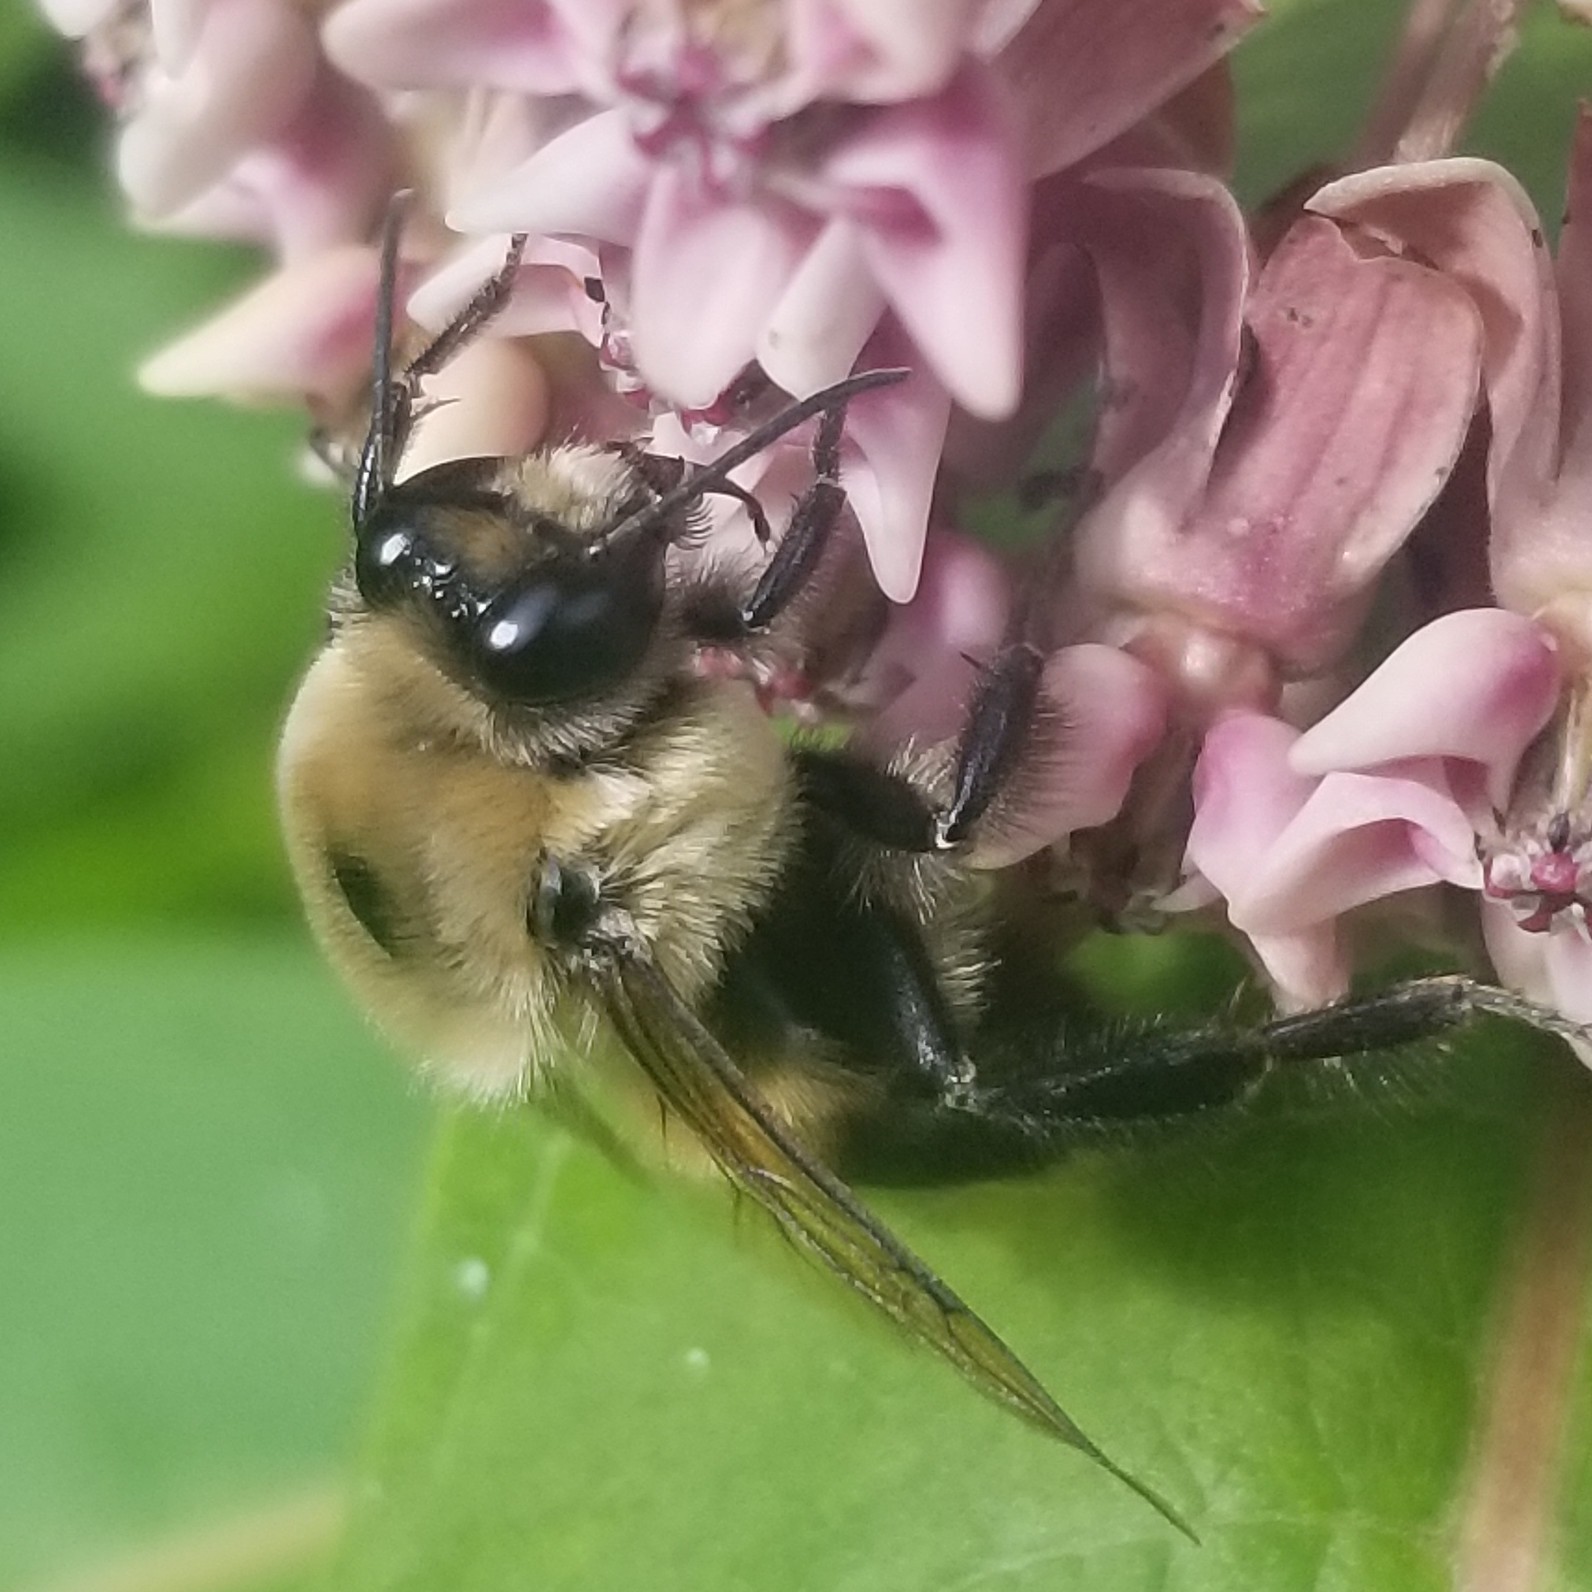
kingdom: Animalia
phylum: Arthropoda
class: Insecta
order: Hymenoptera
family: Apidae
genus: Bombus
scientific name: Bombus griseocollis
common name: Brown-belted bumble bee
